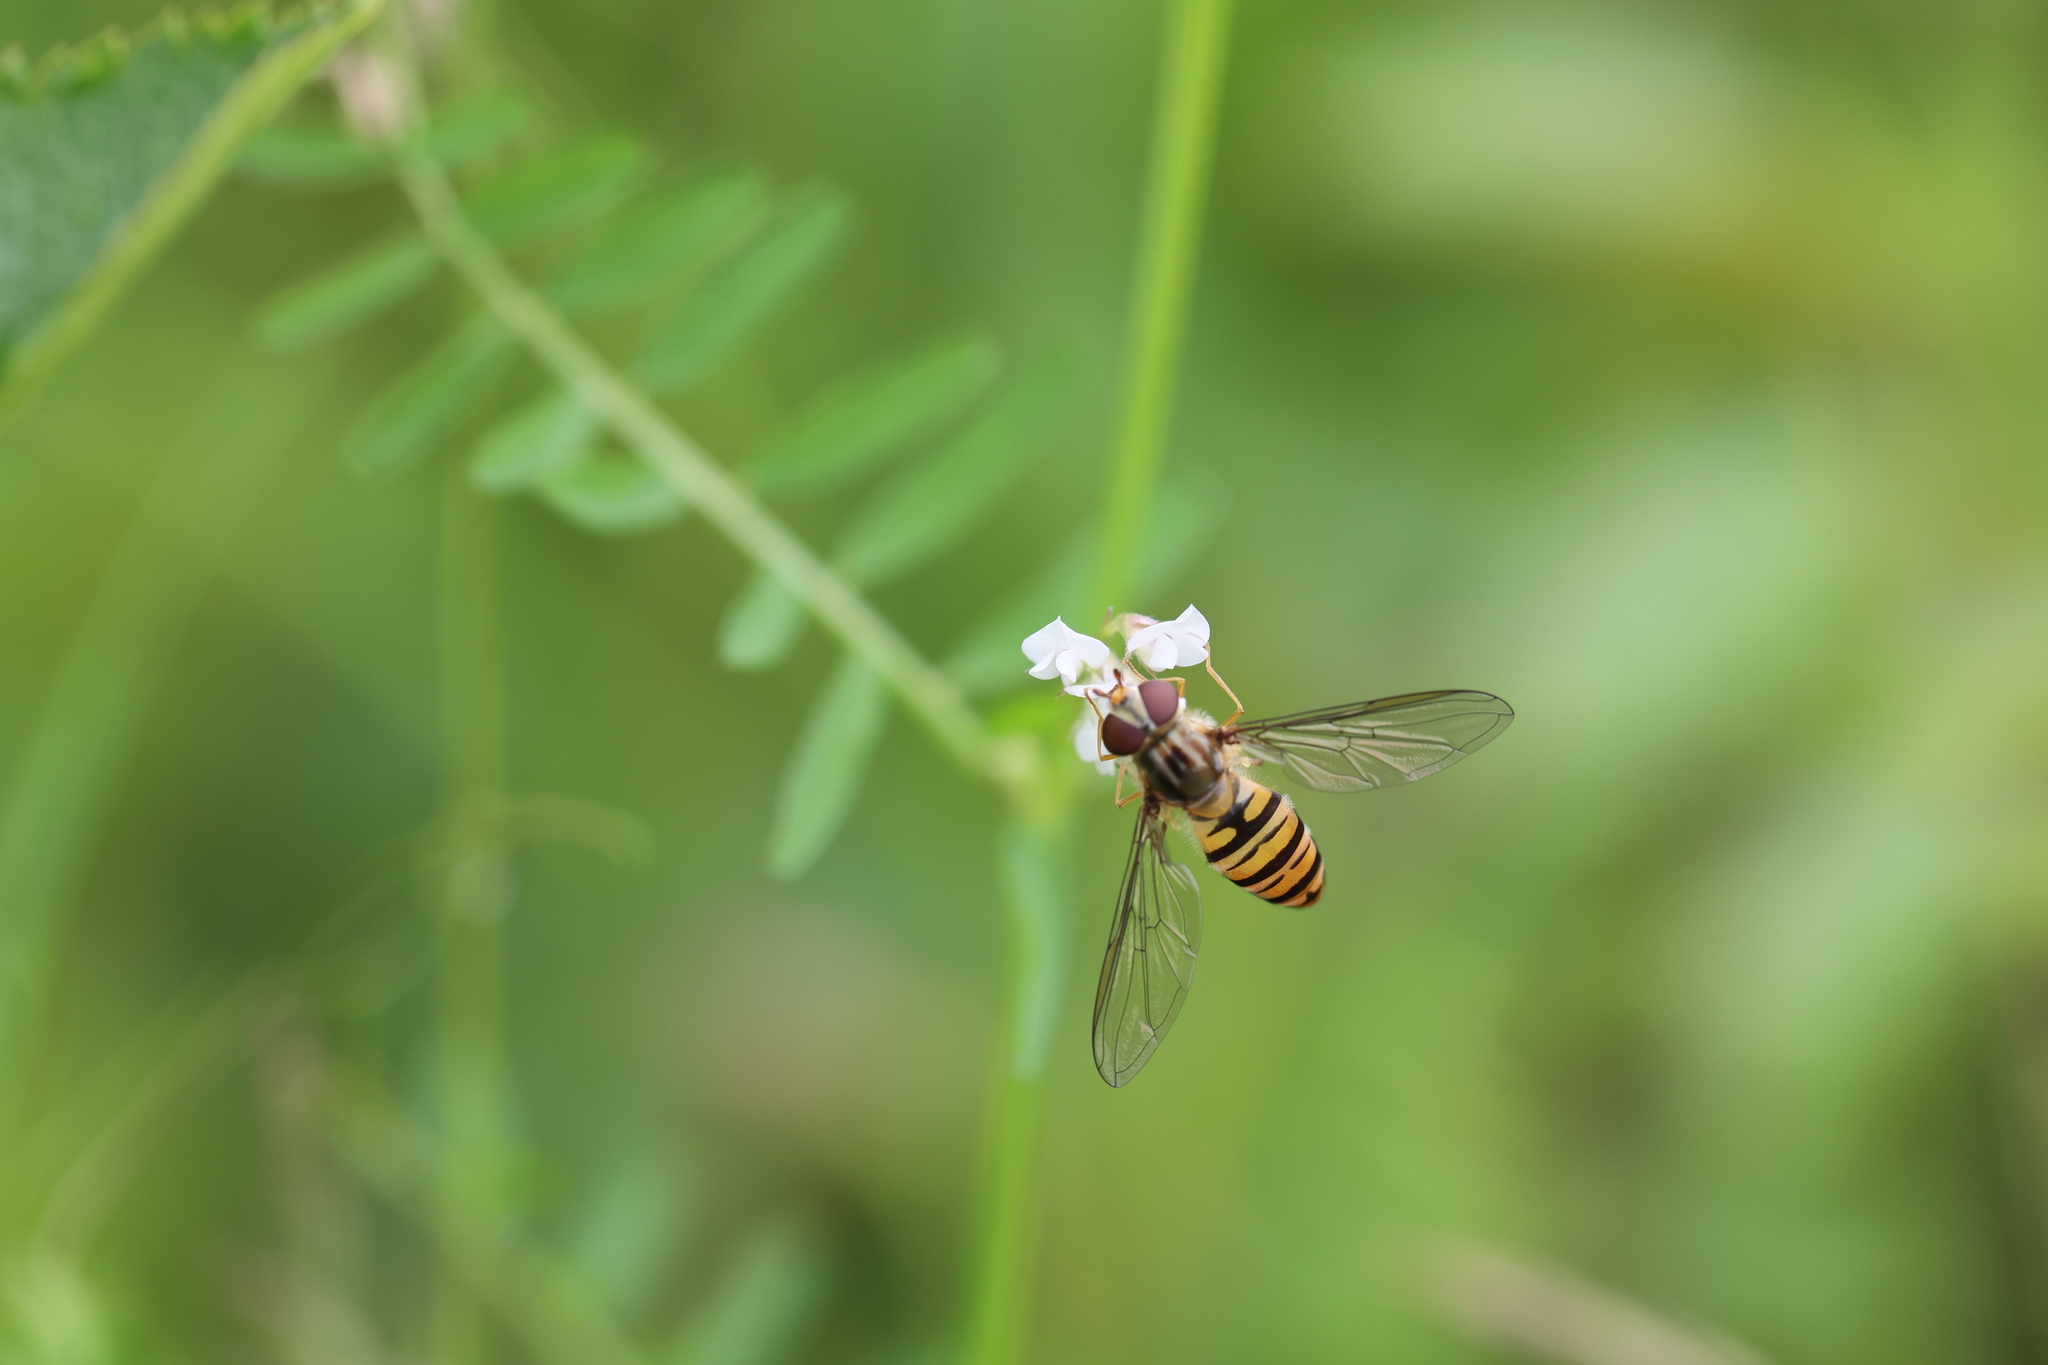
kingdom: Animalia
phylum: Arthropoda
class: Insecta
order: Diptera
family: Syrphidae
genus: Episyrphus
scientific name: Episyrphus balteatus
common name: Marmalade hoverfly
